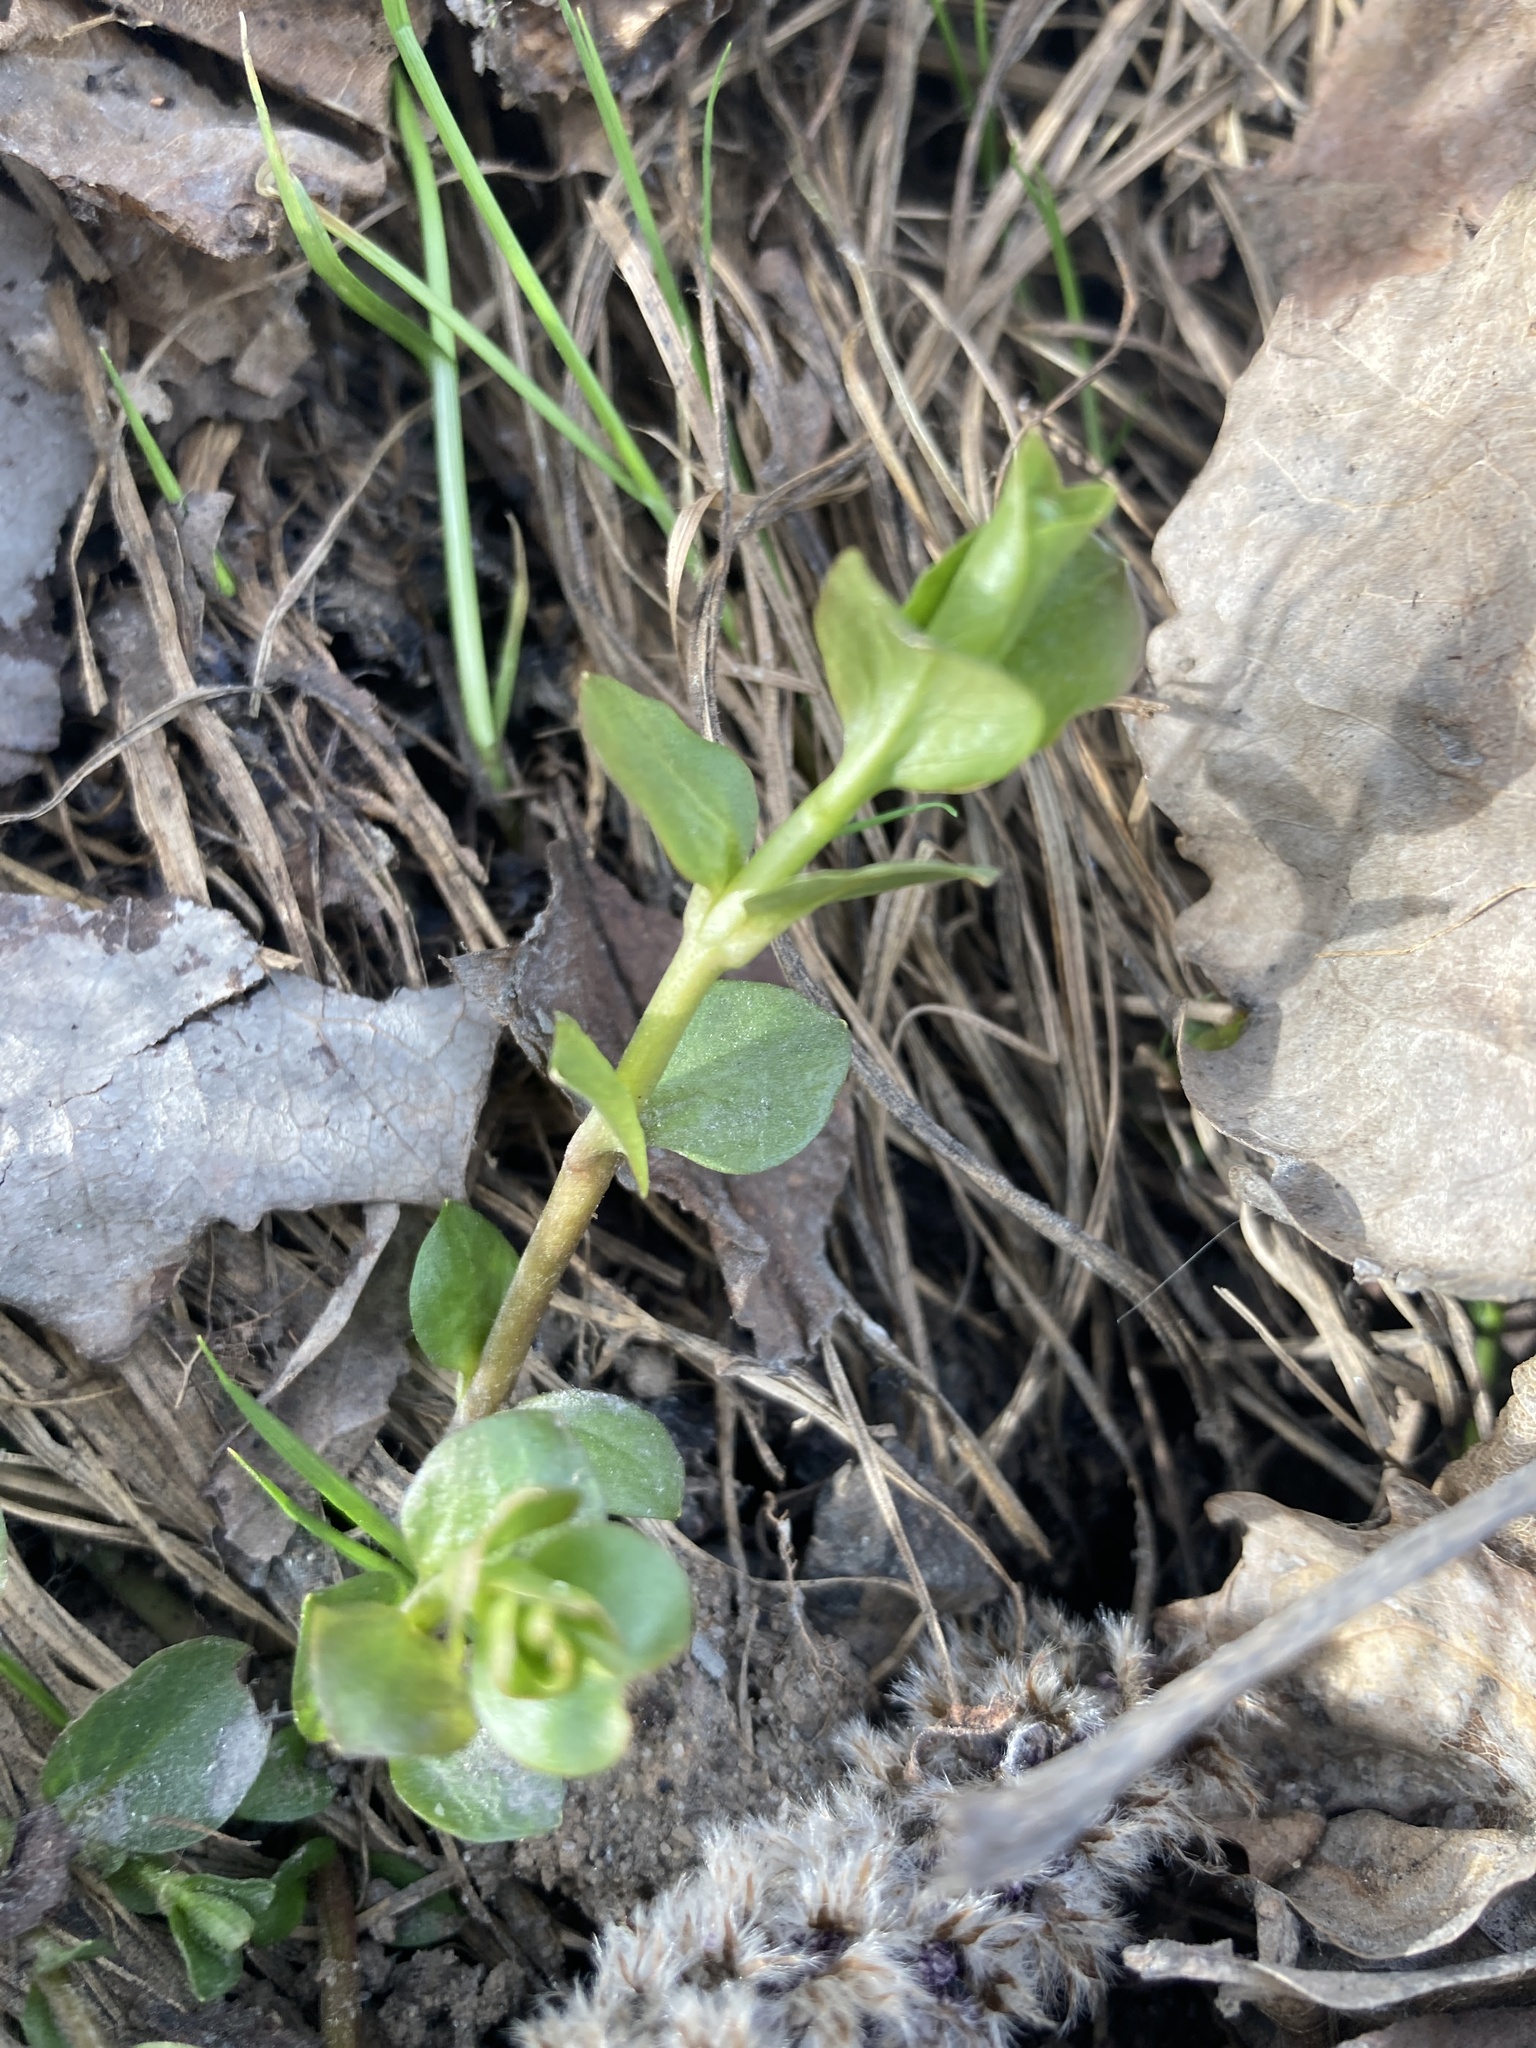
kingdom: Plantae
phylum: Tracheophyta
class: Magnoliopsida
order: Ericales
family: Primulaceae
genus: Lysimachia
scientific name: Lysimachia nummularia
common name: Moneywort
